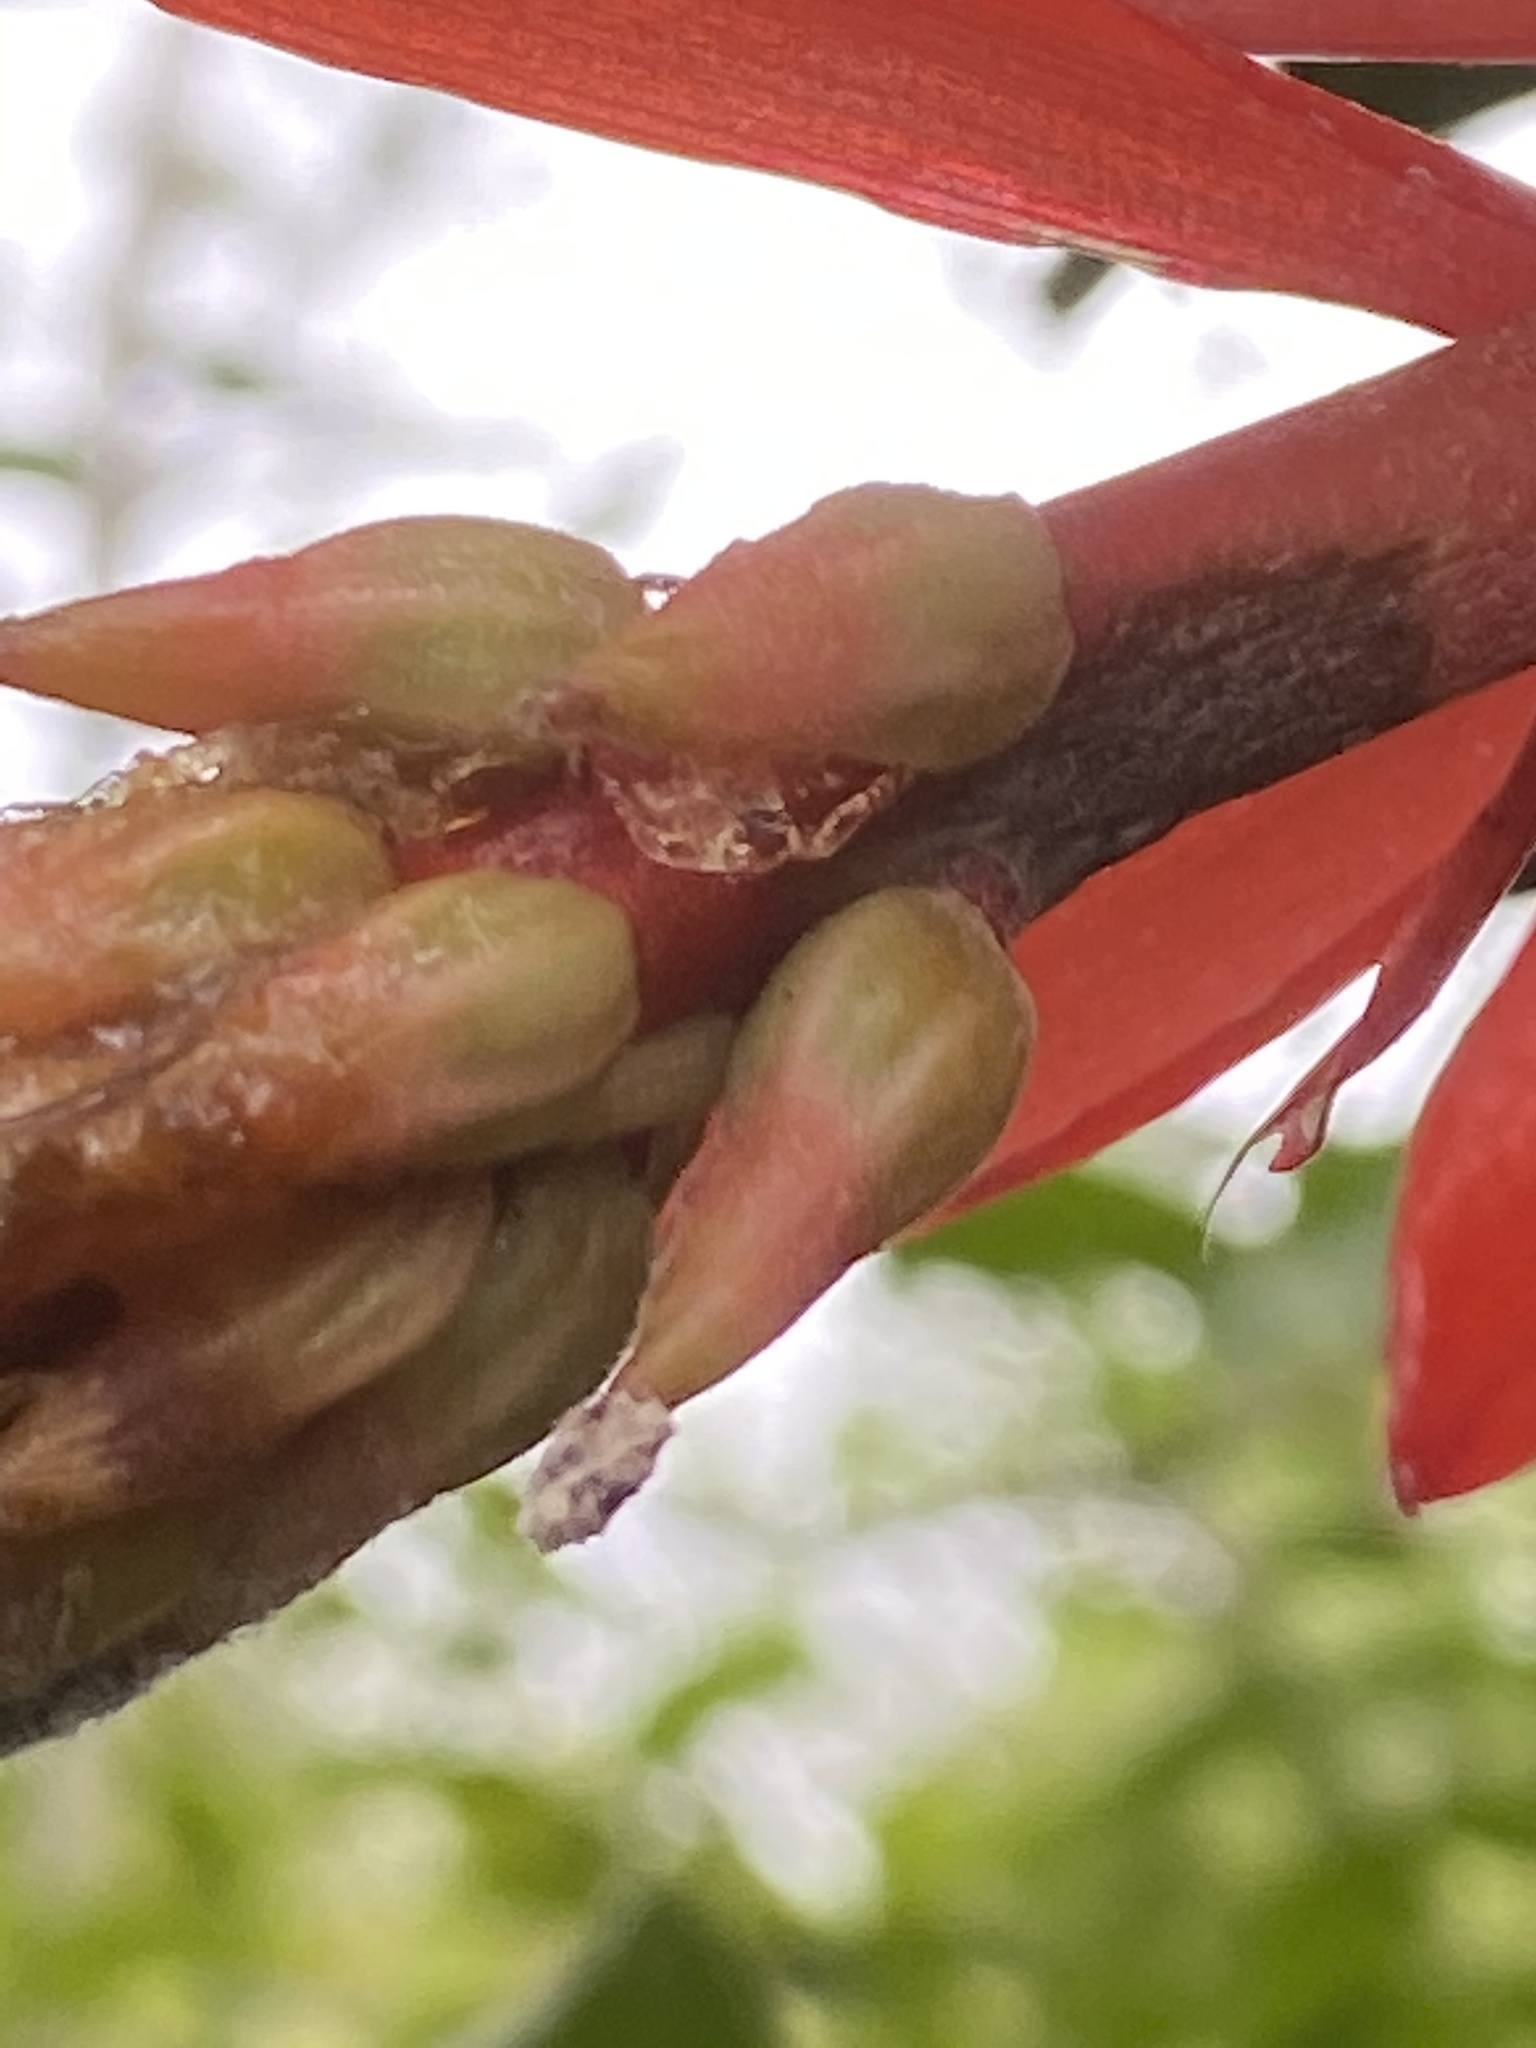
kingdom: Plantae
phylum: Tracheophyta
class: Liliopsida
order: Poales
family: Bromeliaceae
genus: Aechmea
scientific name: Aechmea nudicaulis
